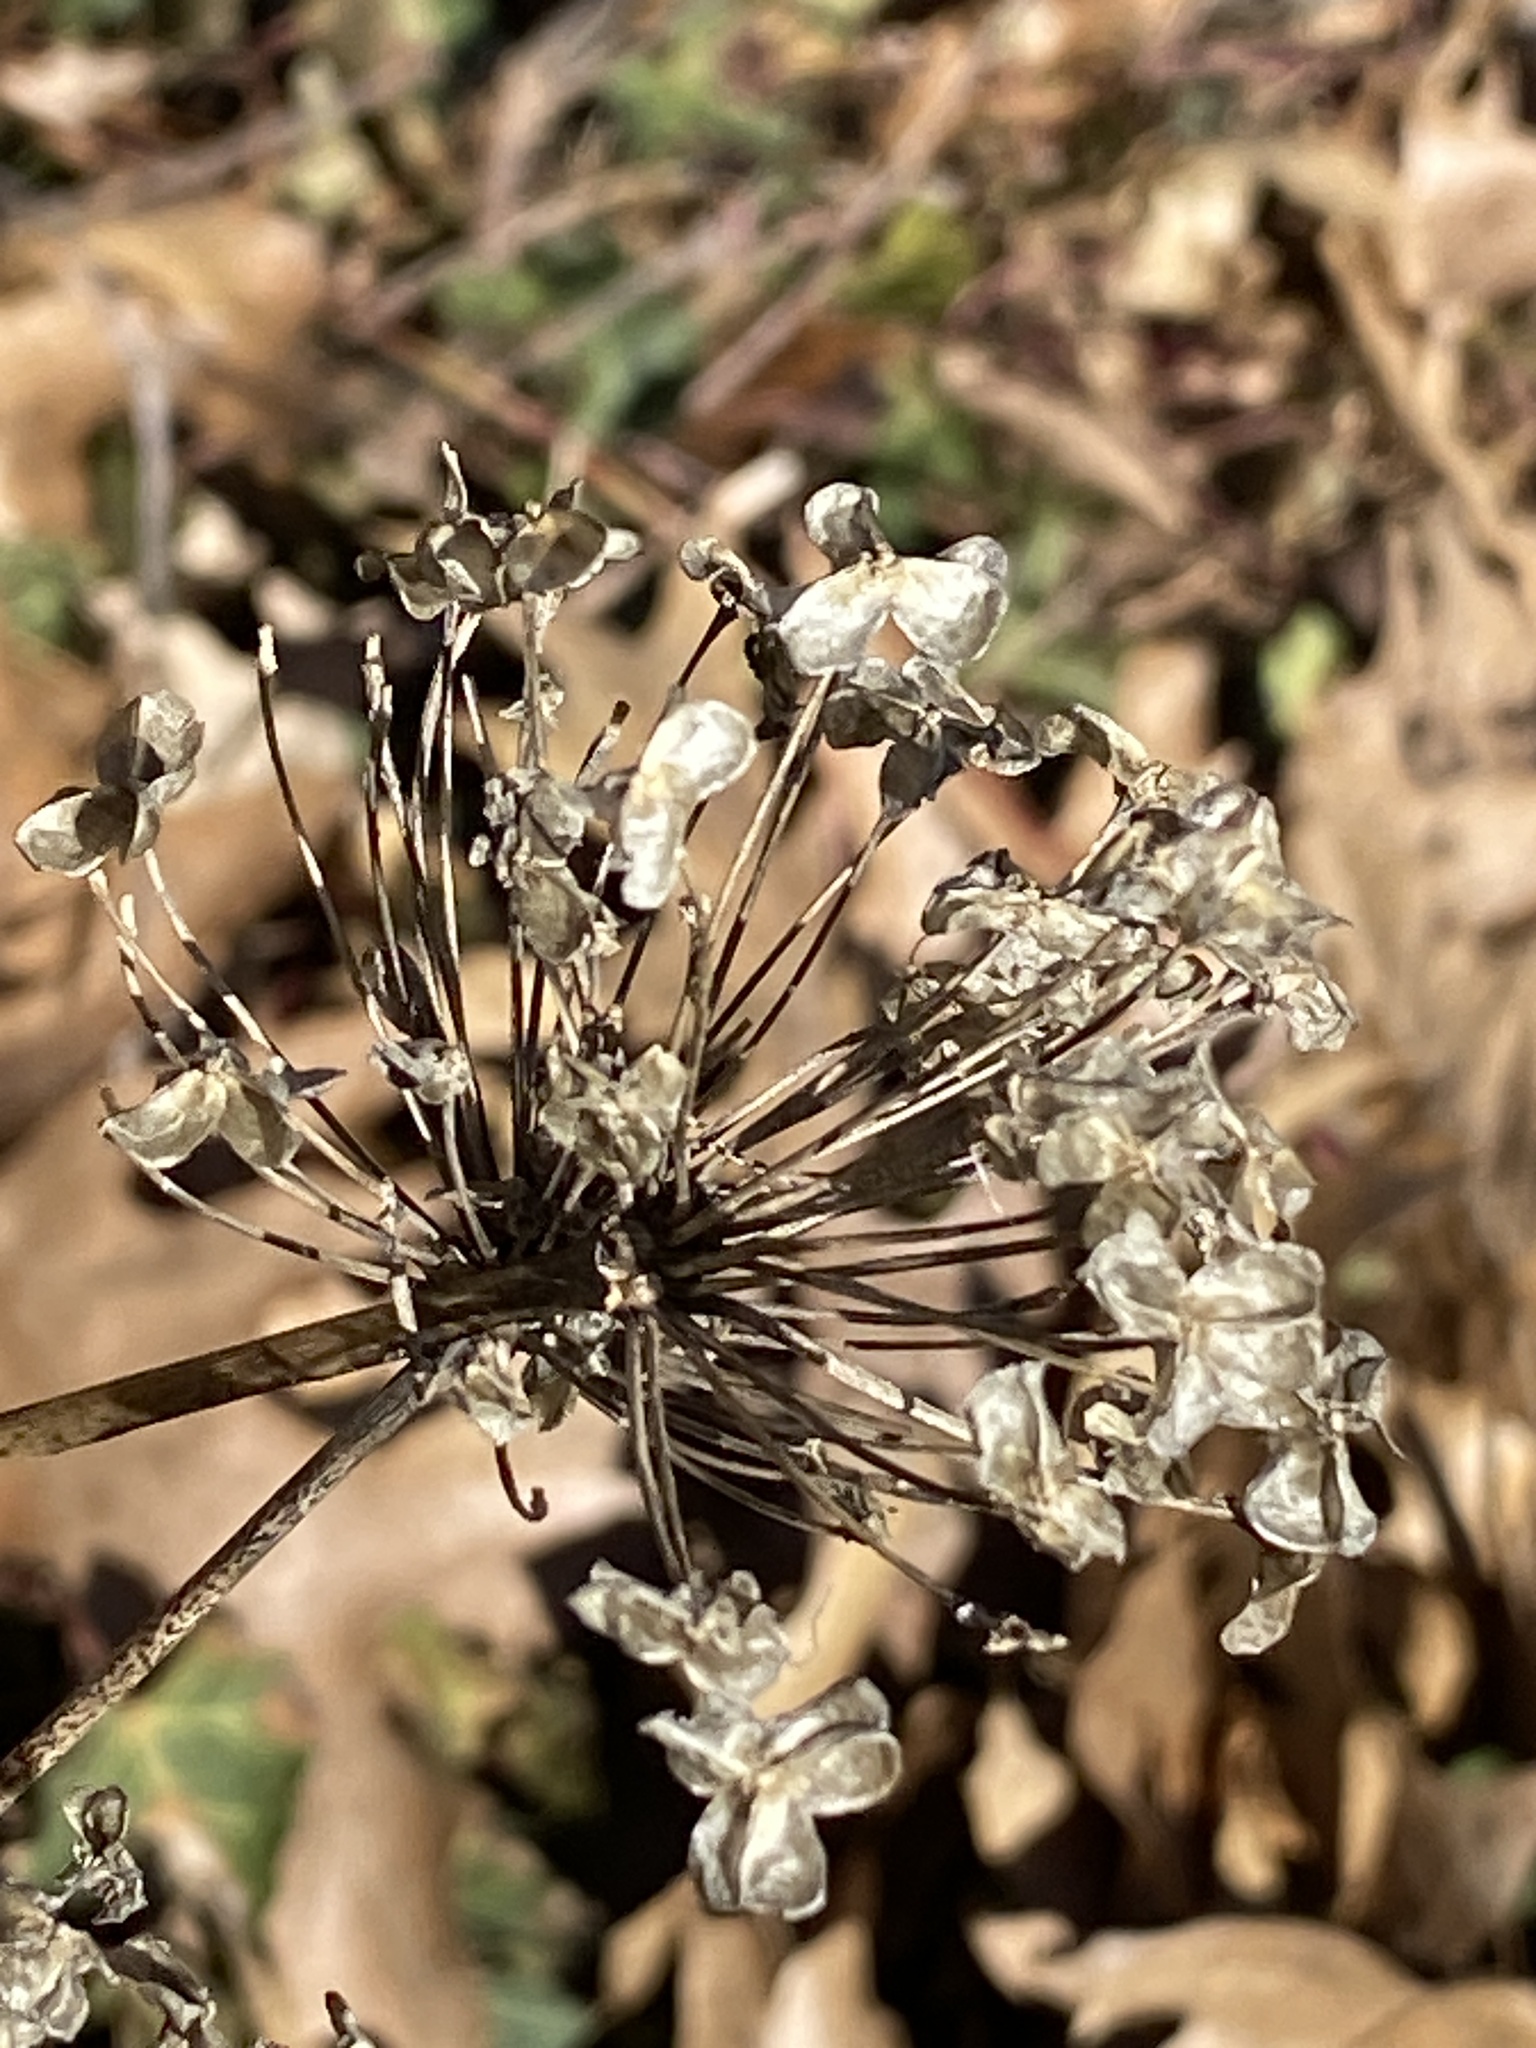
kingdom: Plantae
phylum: Tracheophyta
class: Liliopsida
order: Asparagales
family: Amaryllidaceae
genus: Allium
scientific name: Allium tuberosum
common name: Chinese chives
